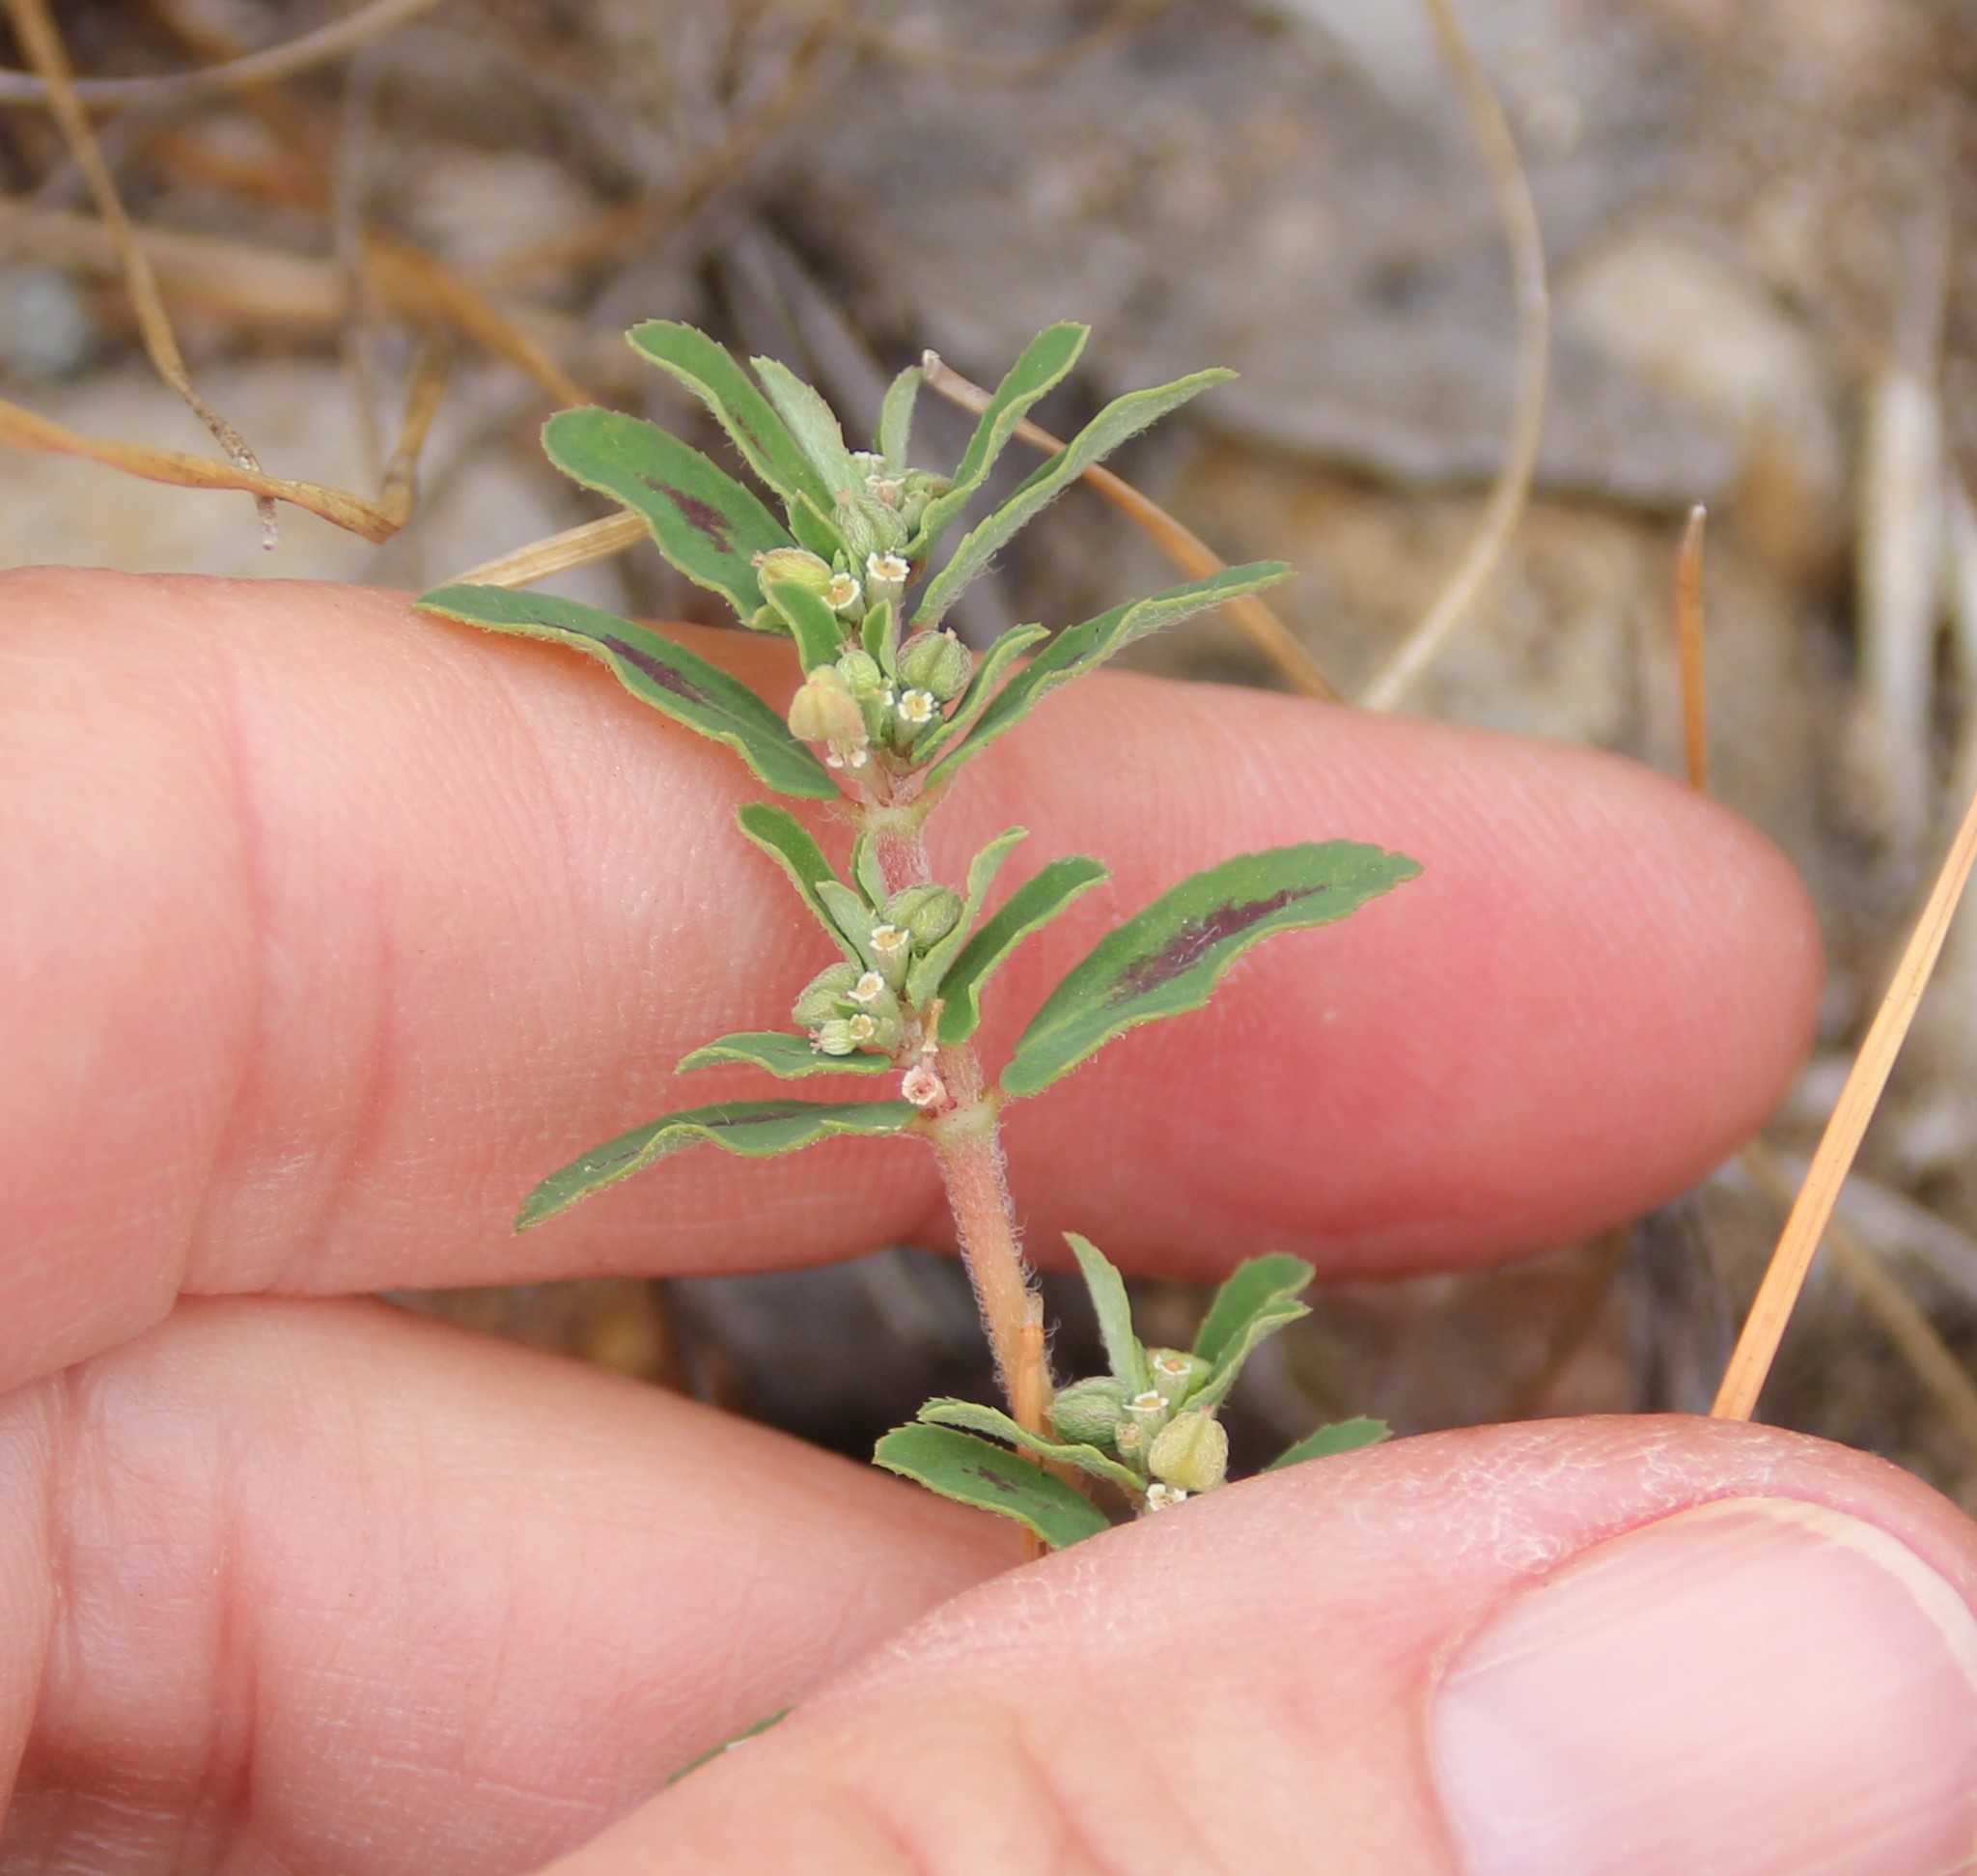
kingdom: Plantae
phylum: Tracheophyta
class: Magnoliopsida
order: Malpighiales
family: Euphorbiaceae
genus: Euphorbia
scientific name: Euphorbia maculata
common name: Spotted spurge
